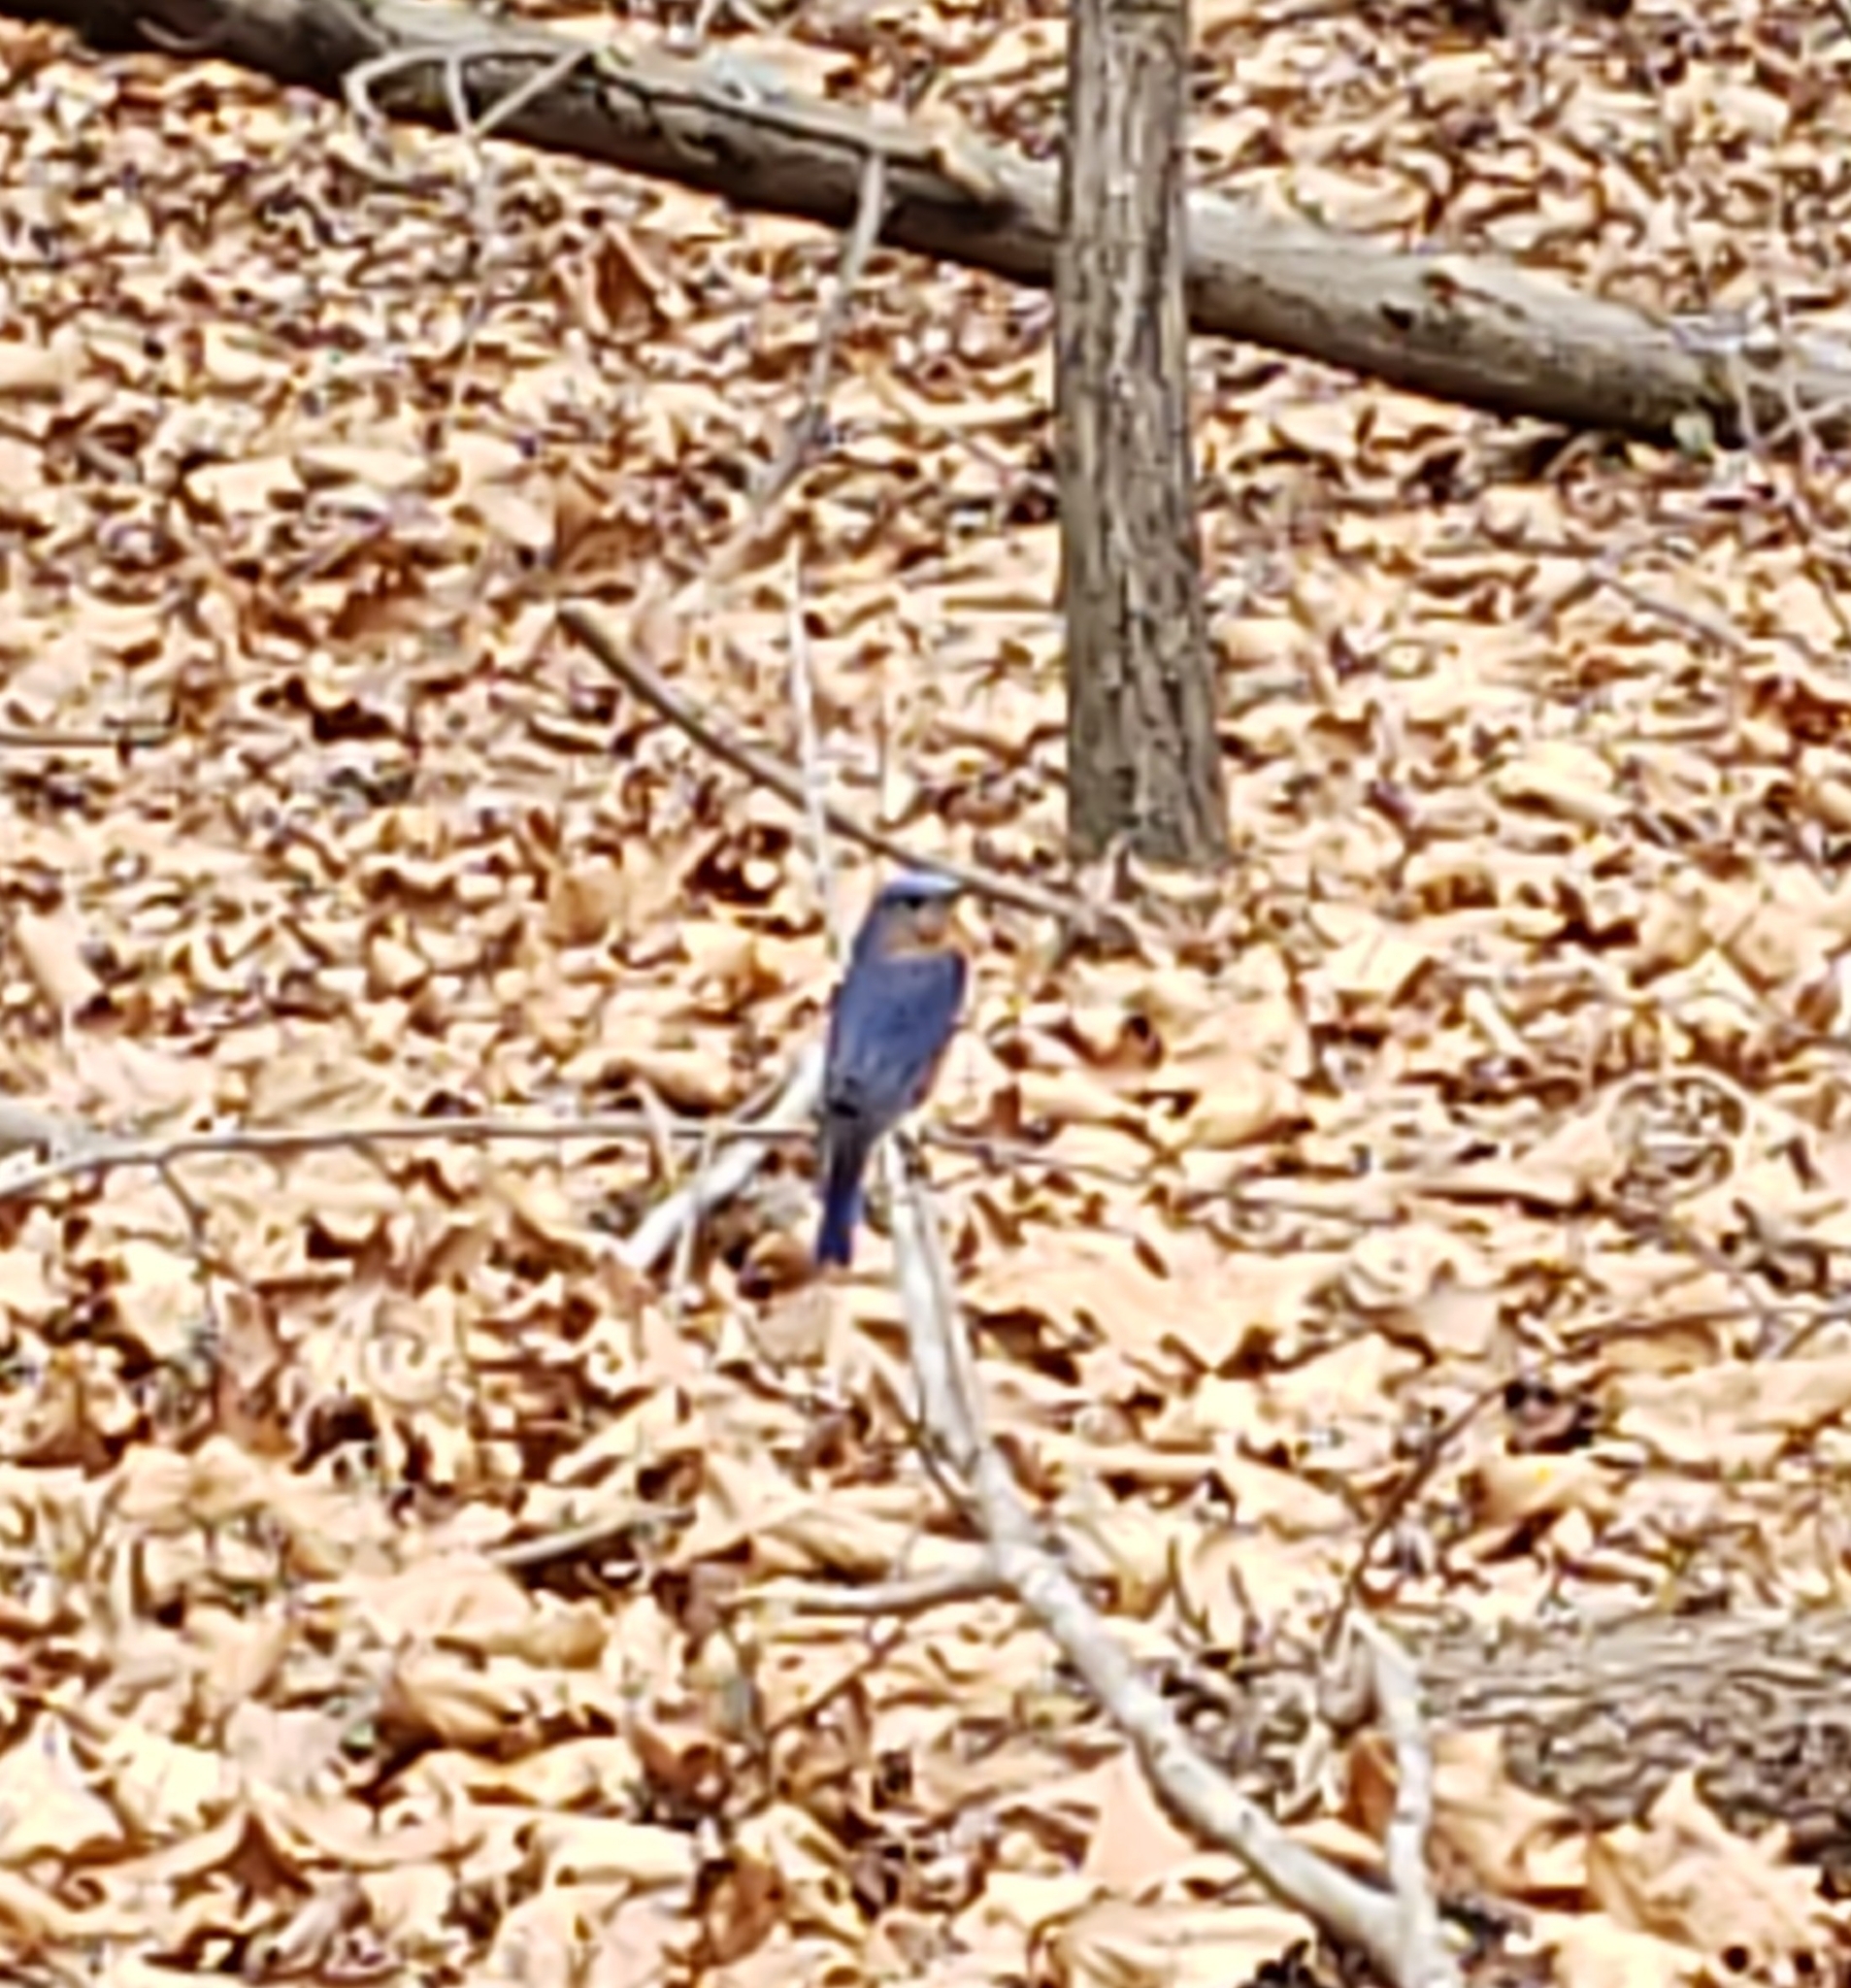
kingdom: Animalia
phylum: Chordata
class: Aves
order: Passeriformes
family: Turdidae
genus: Sialia
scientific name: Sialia sialis
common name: Eastern bluebird
